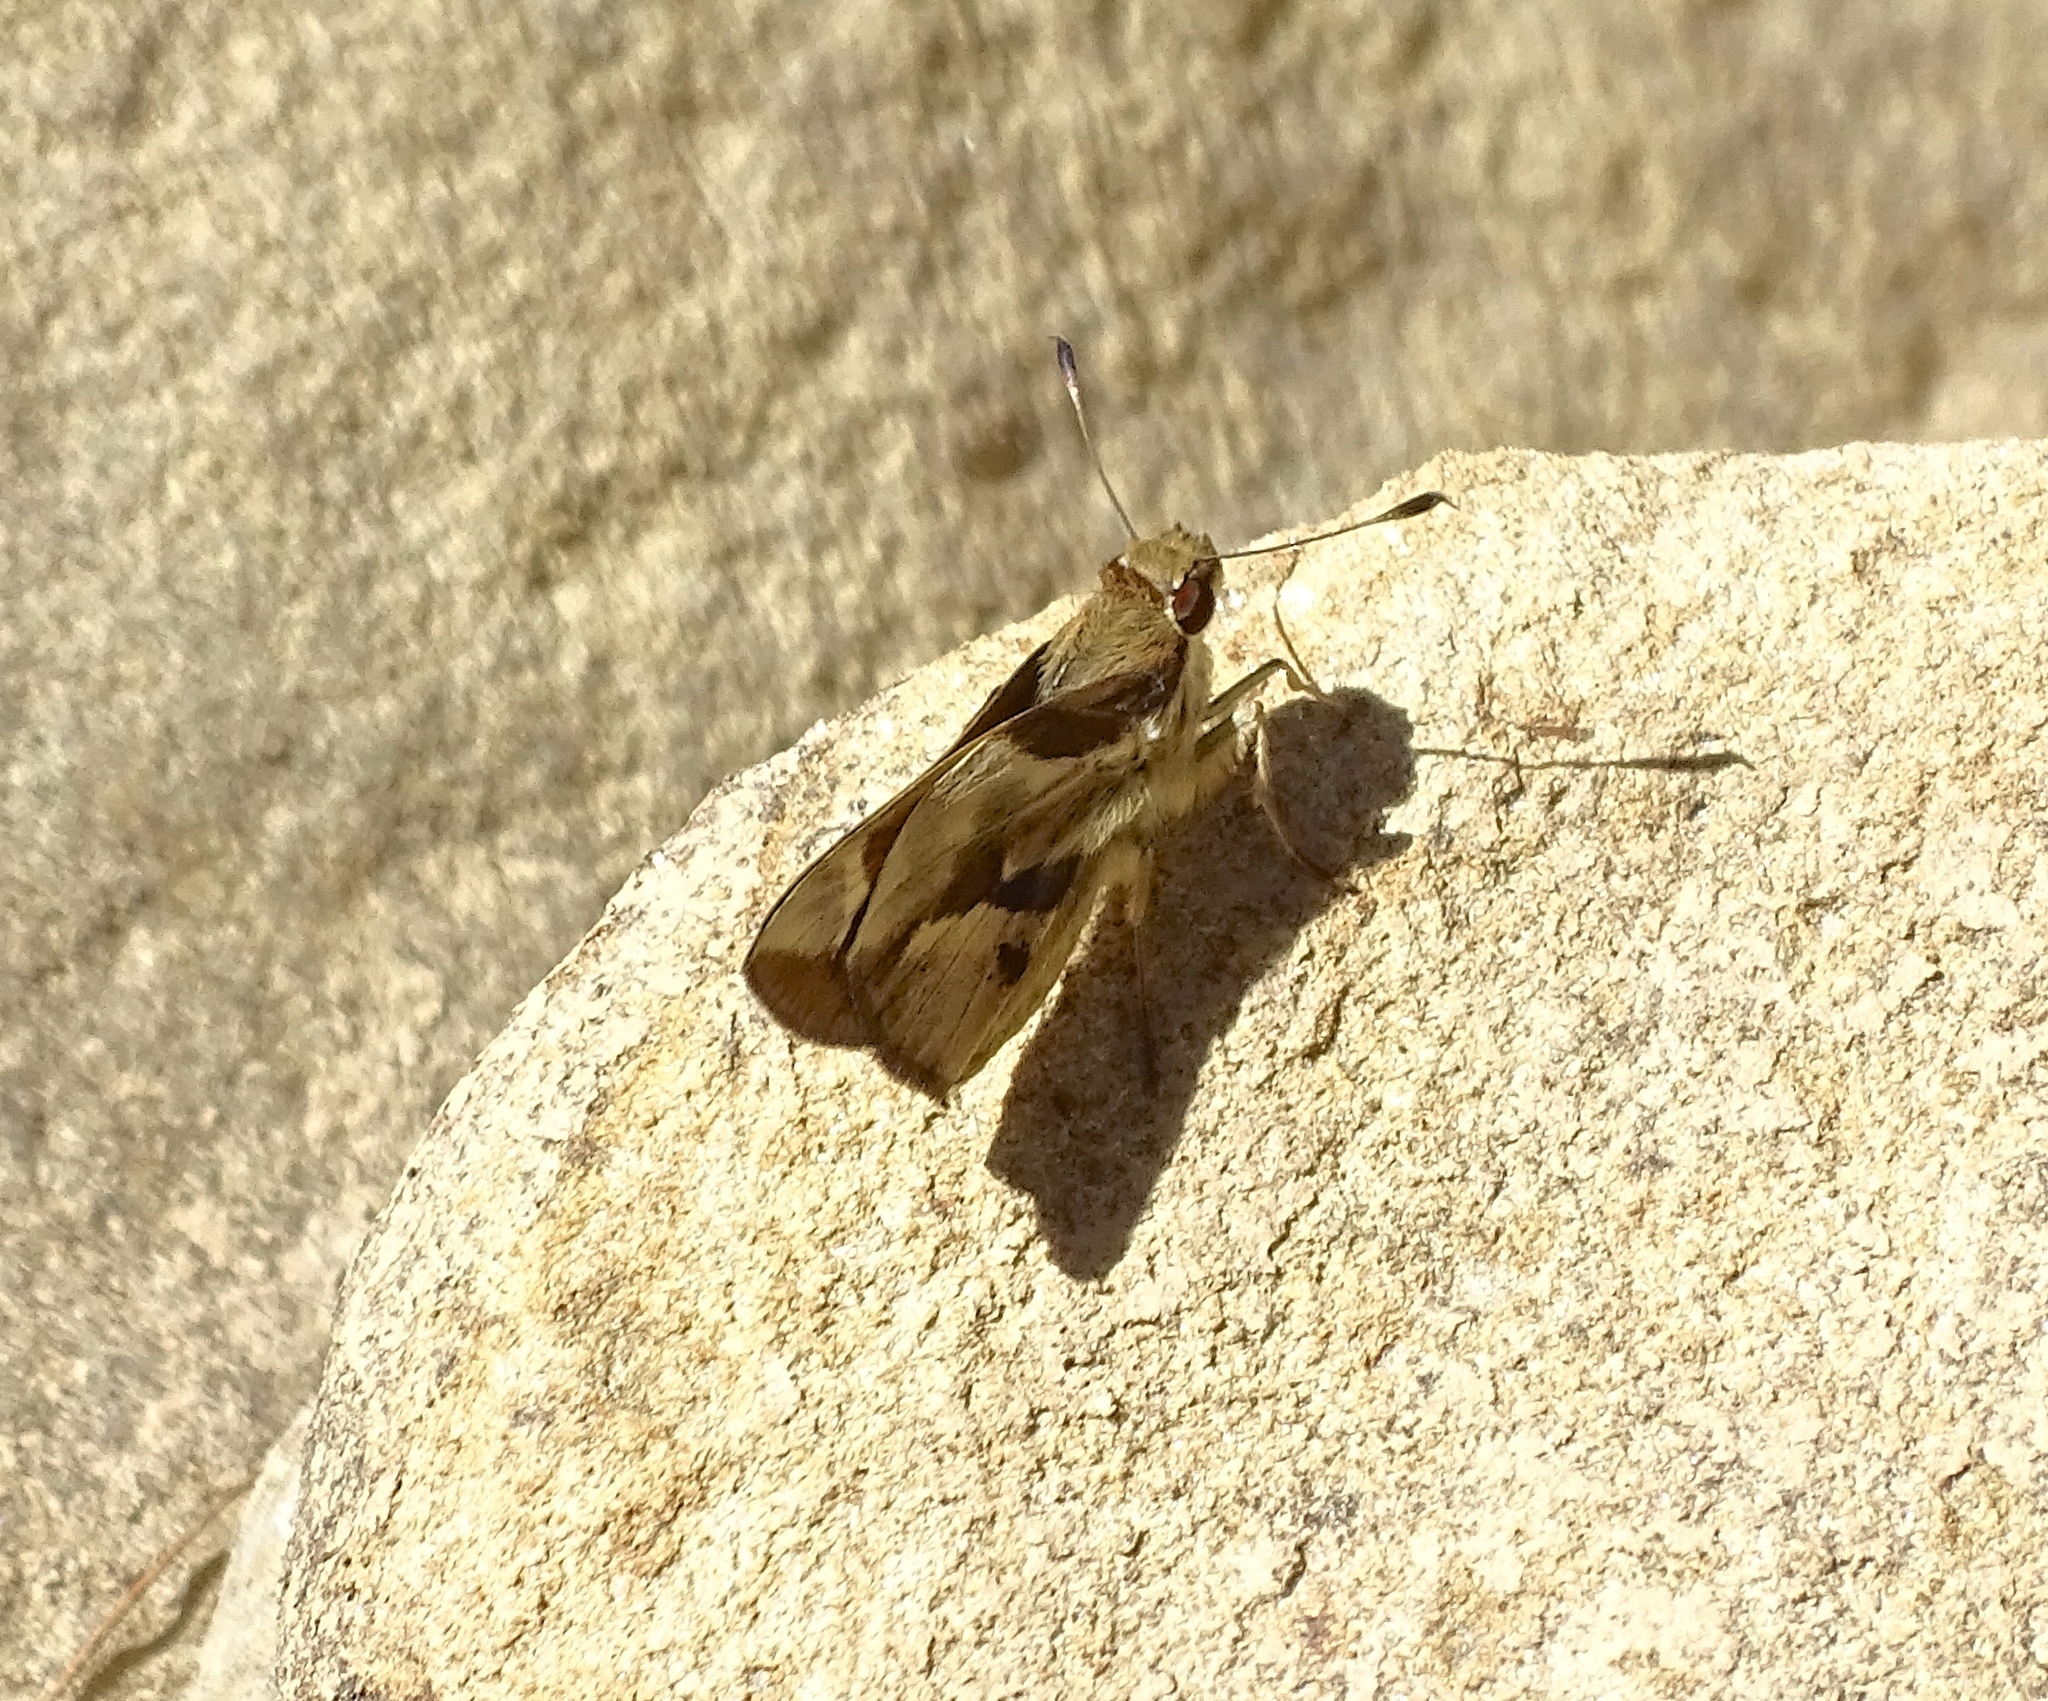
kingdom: Animalia
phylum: Arthropoda
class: Insecta
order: Lepidoptera
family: Hesperiidae
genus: Vettius
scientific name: Vettius lucretius
